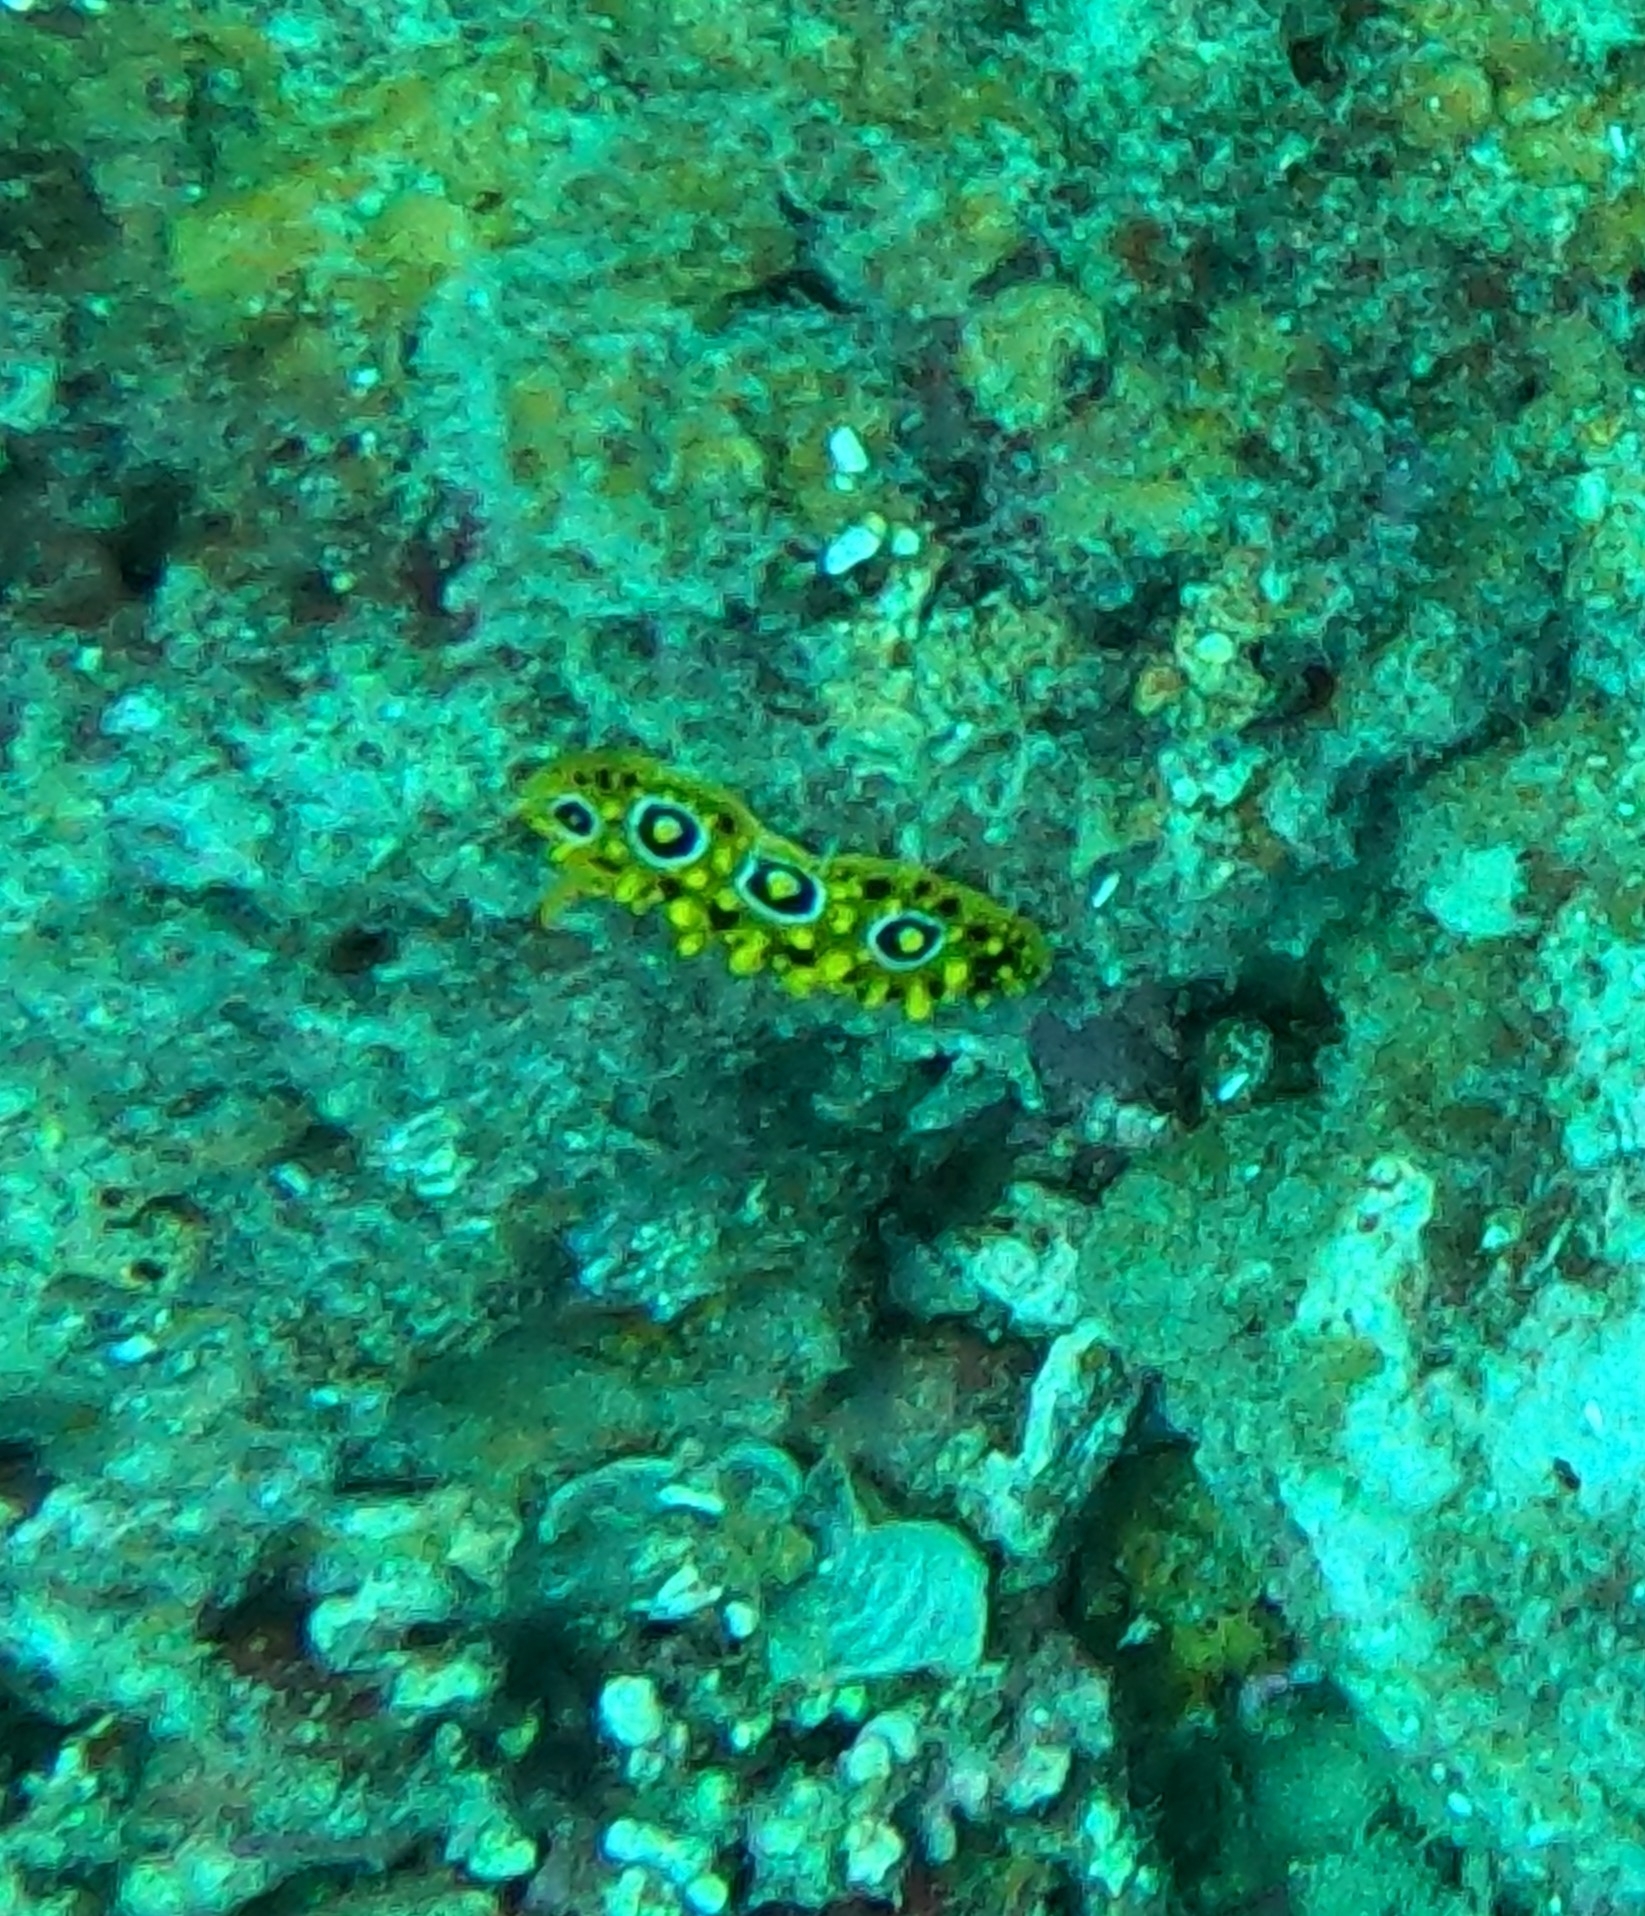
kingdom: Animalia
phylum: Mollusca
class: Gastropoda
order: Nudibranchia
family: Phyllidiidae
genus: Phyllidia
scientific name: Phyllidia ocellata
